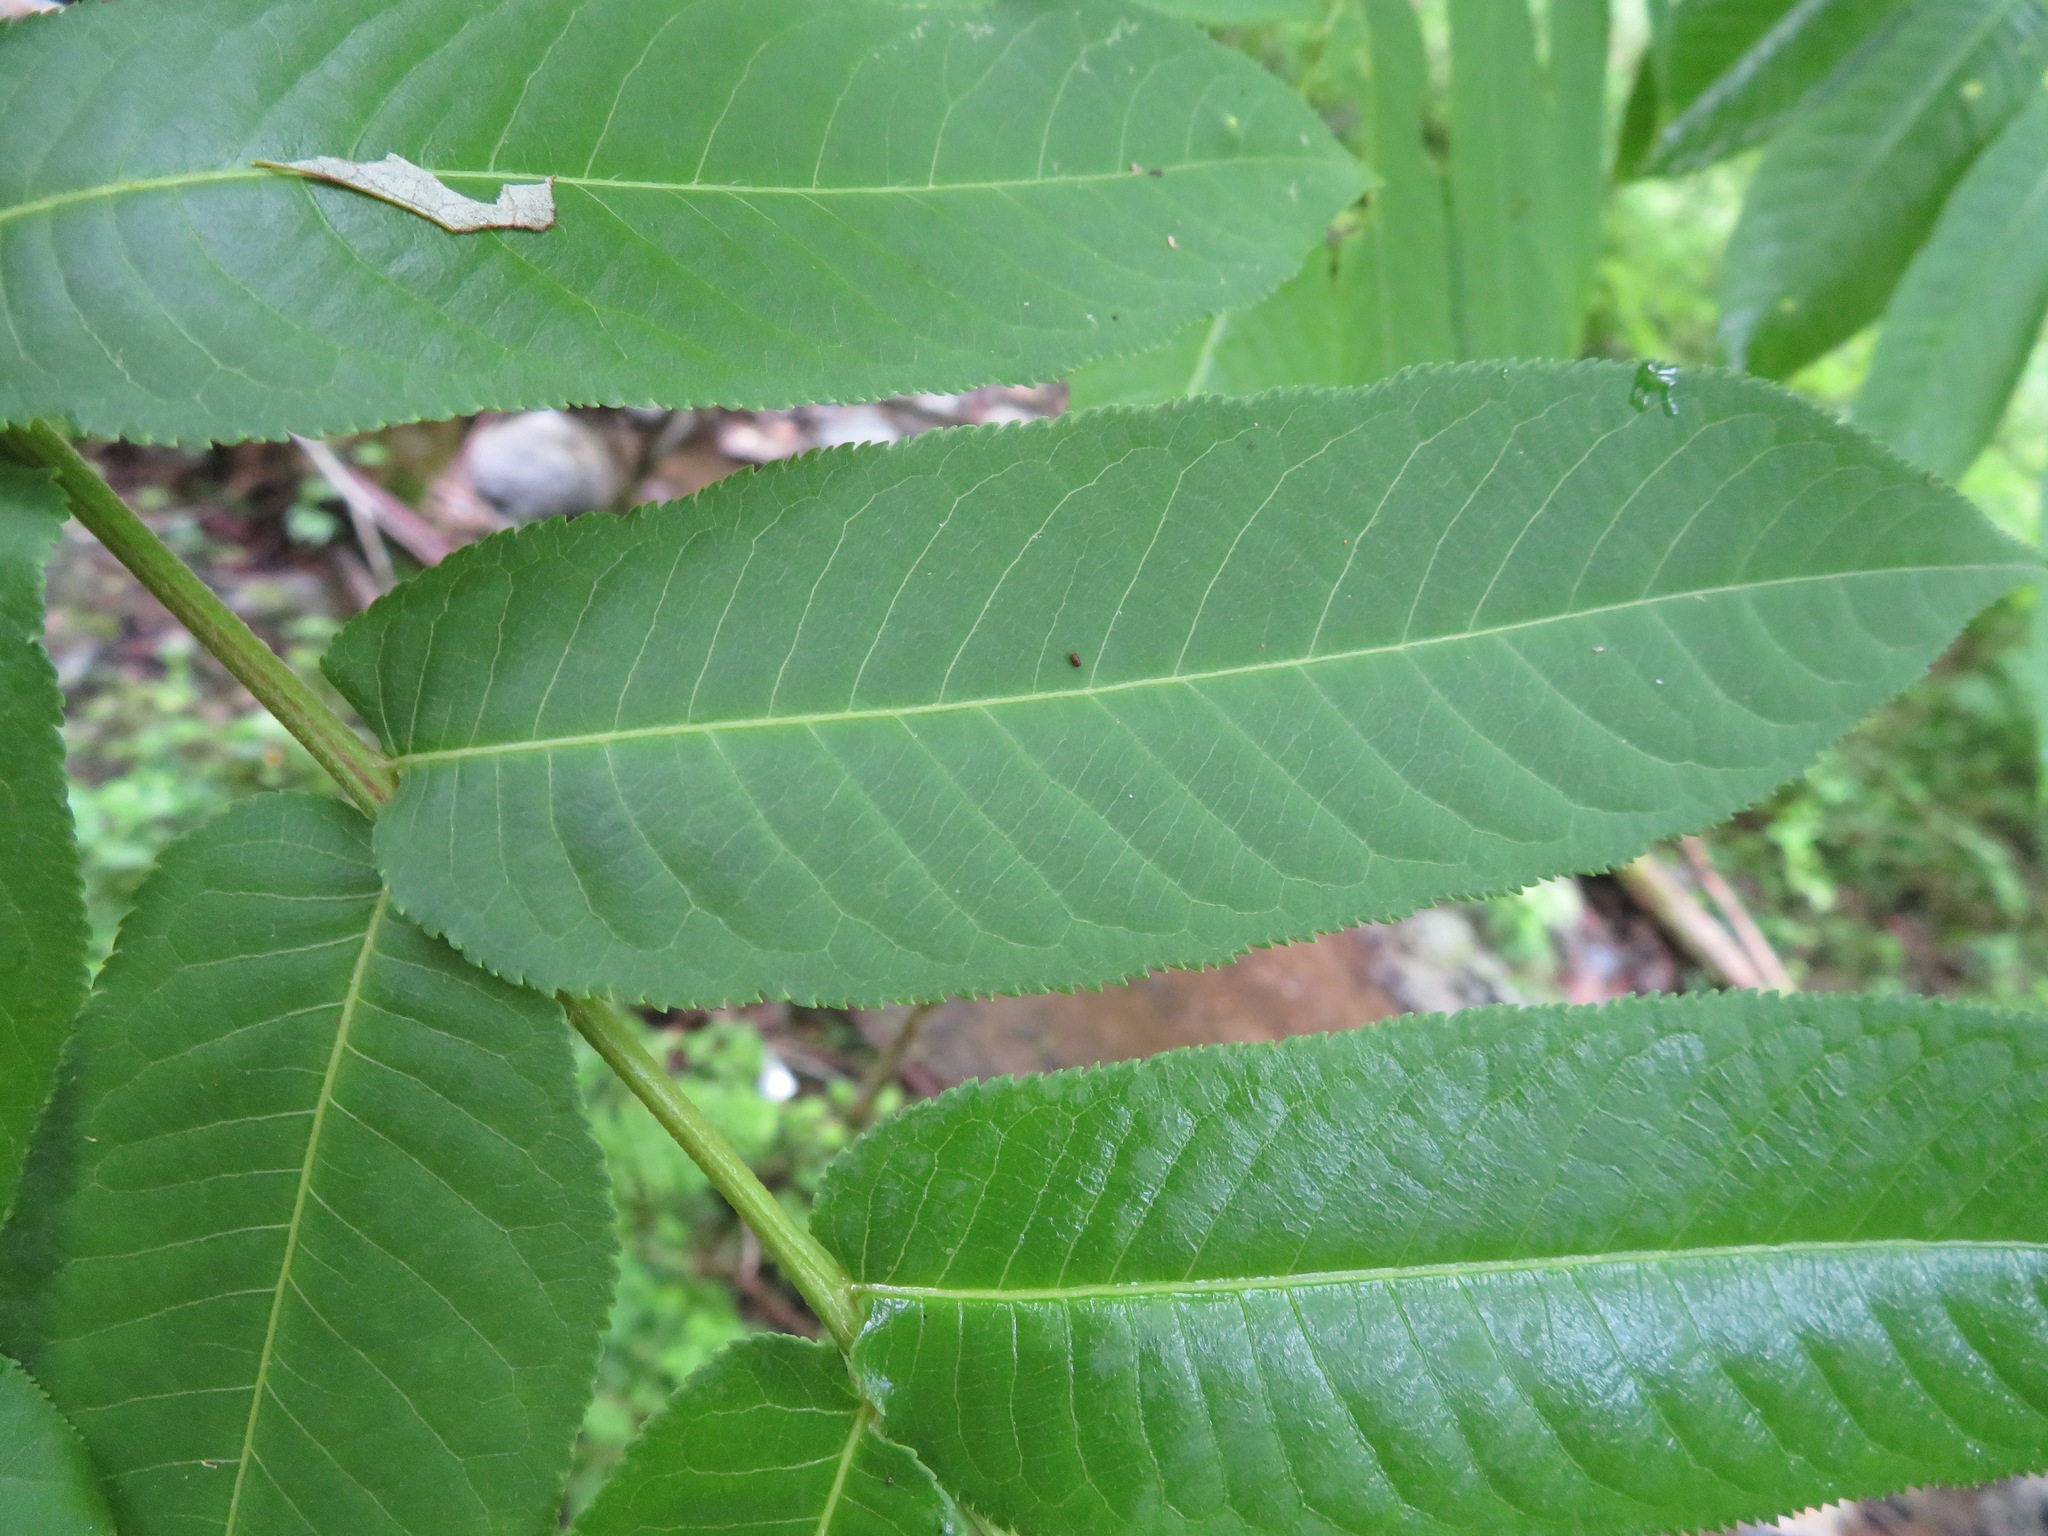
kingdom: Plantae
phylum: Tracheophyta
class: Magnoliopsida
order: Fagales
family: Juglandaceae
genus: Pterocarya
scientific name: Pterocarya rhoifolia
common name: Japanese wingnut
